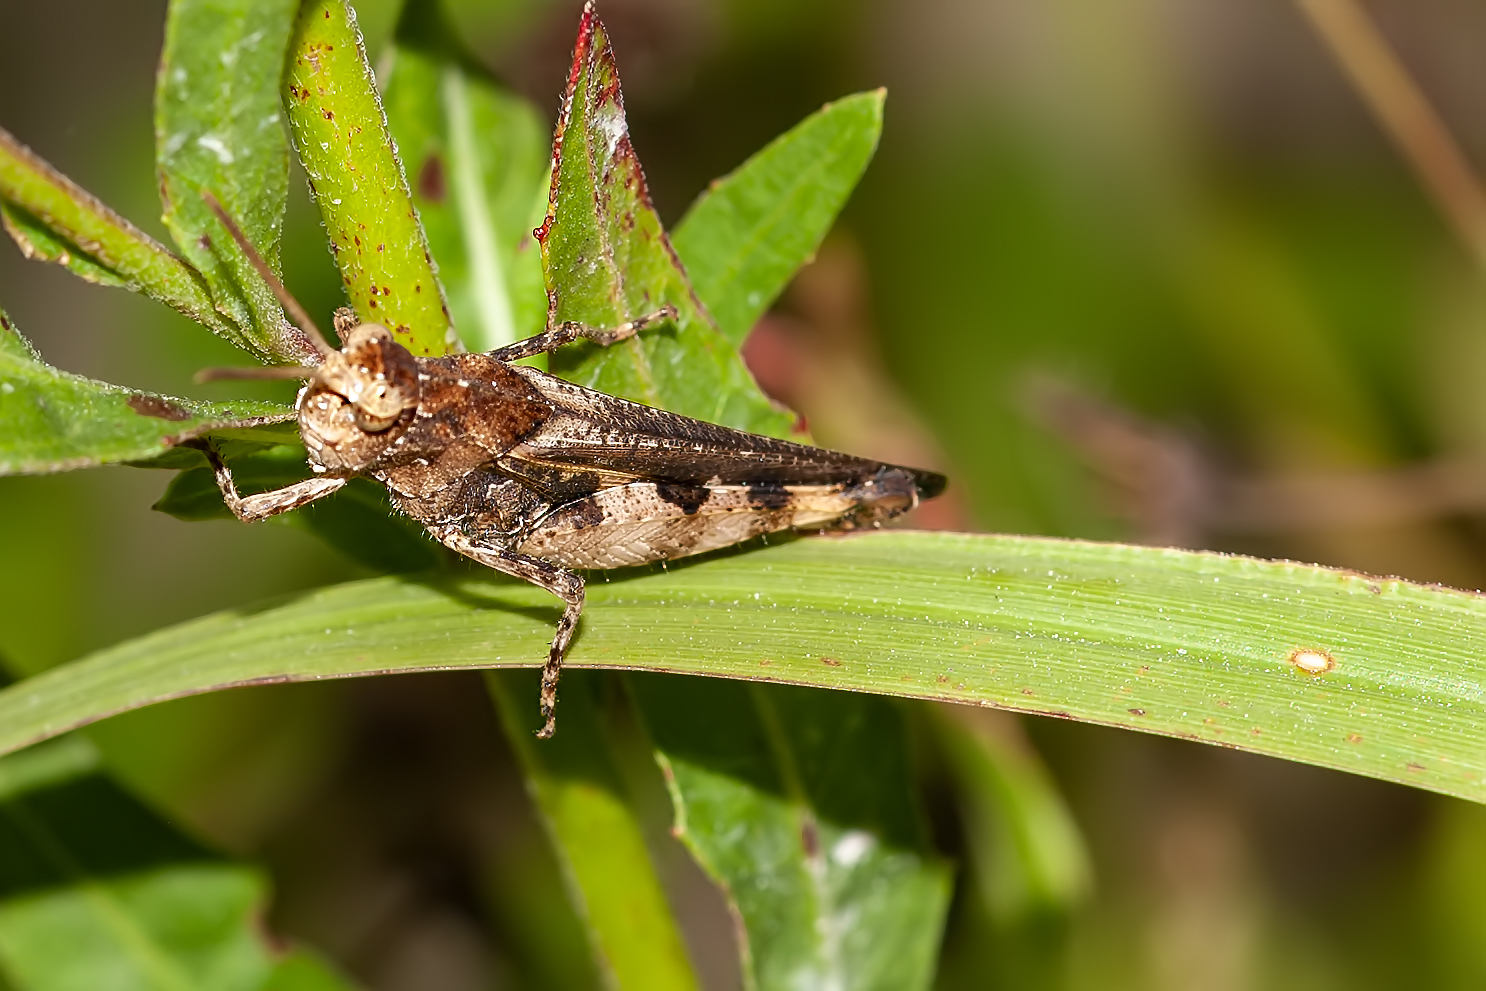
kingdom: Animalia
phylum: Arthropoda
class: Insecta
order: Orthoptera
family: Acrididae
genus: Chortophaga
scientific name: Chortophaga australior
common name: Southern green-striped grasshopper
